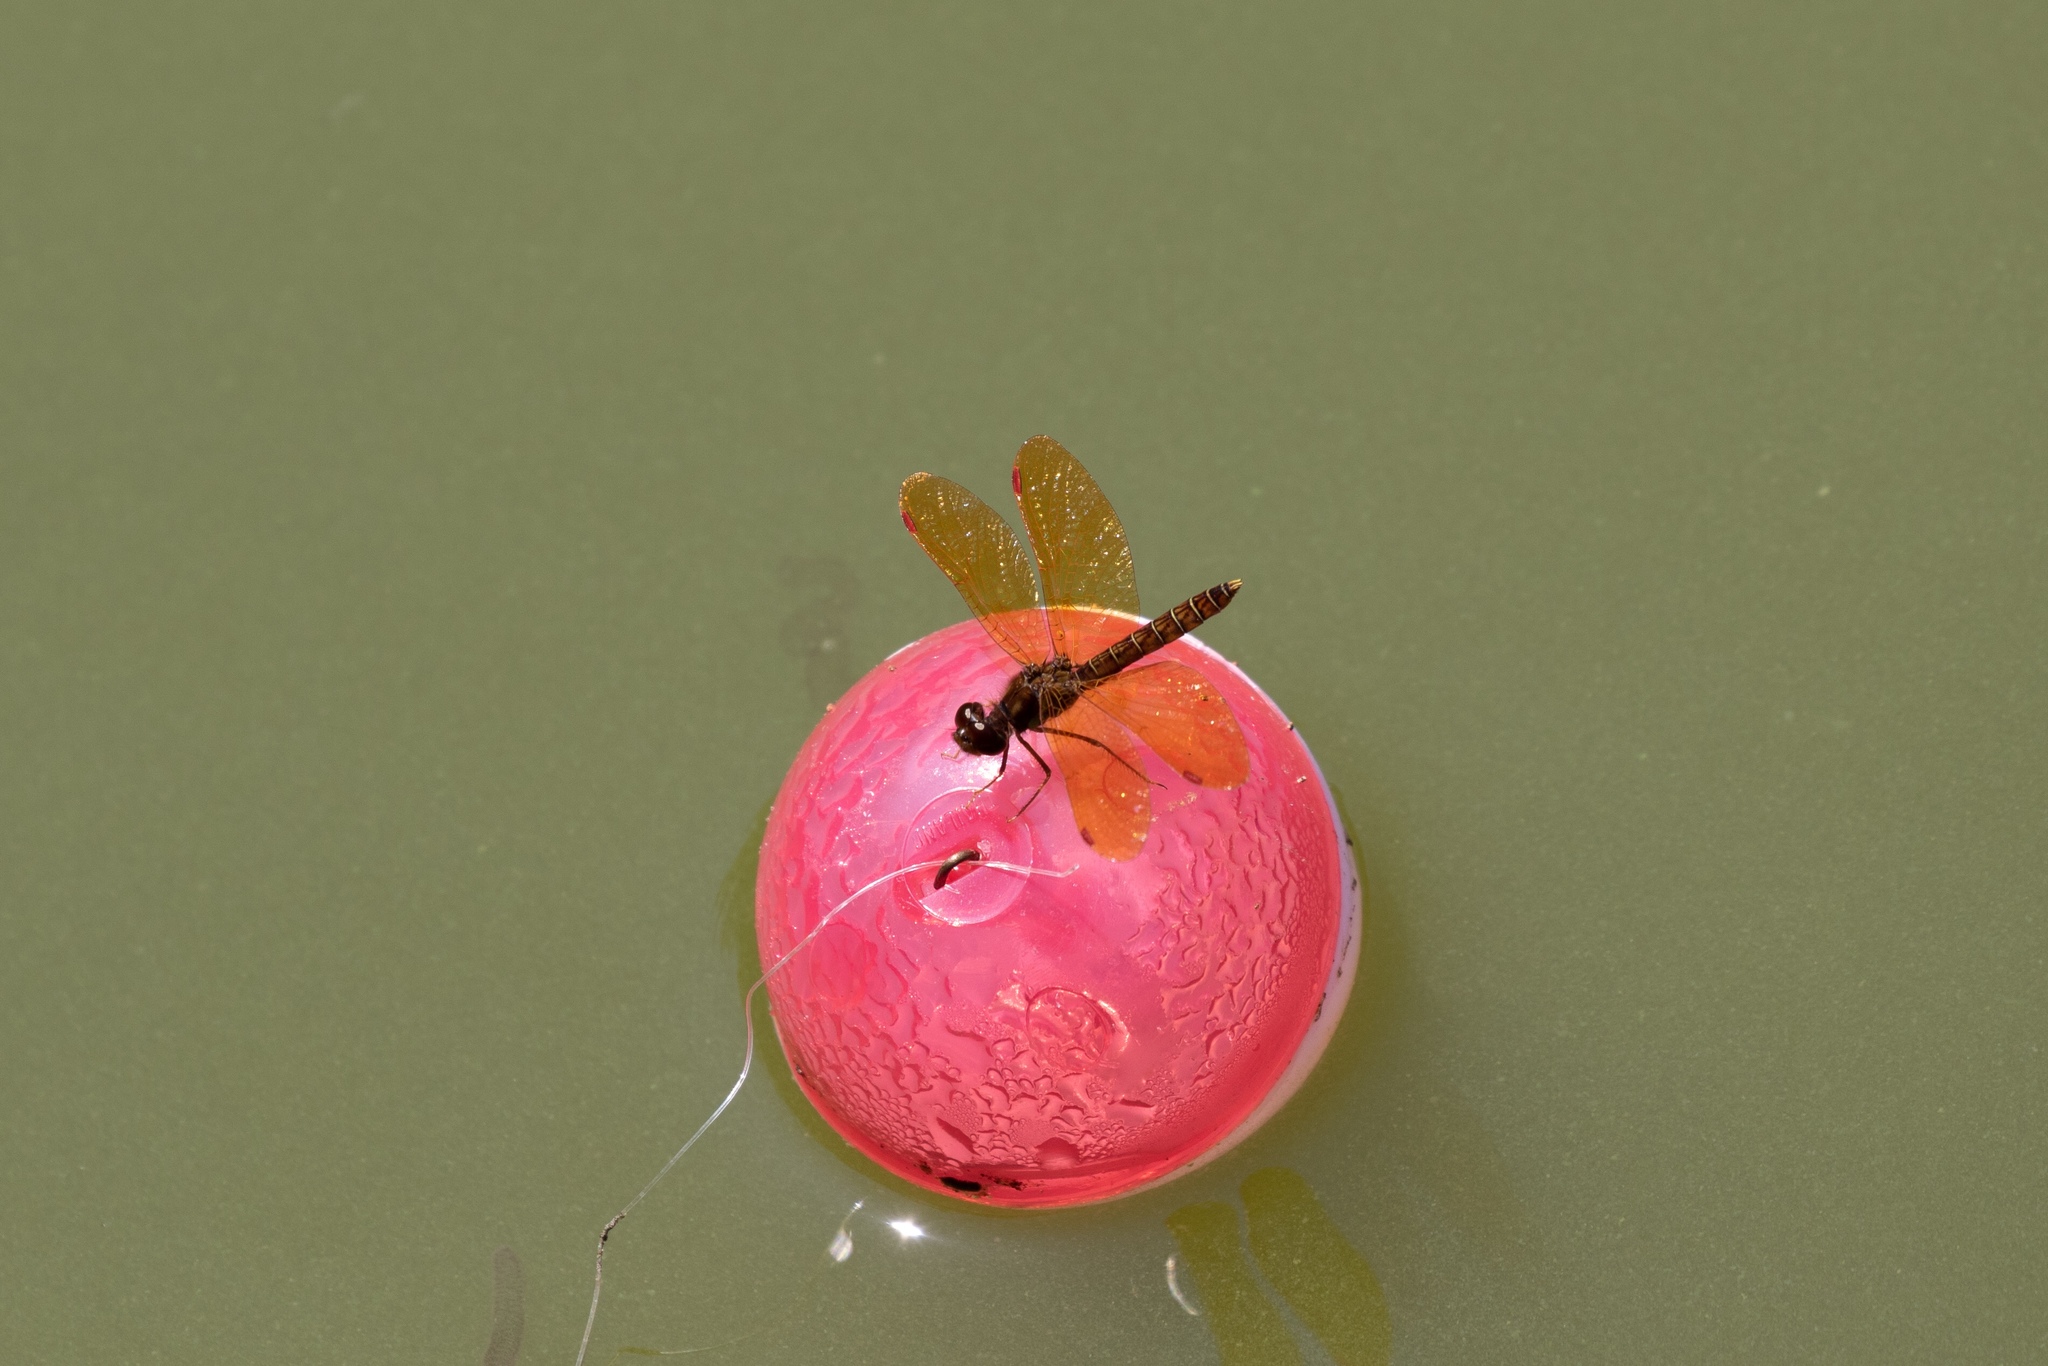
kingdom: Animalia
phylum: Arthropoda
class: Insecta
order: Odonata
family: Libellulidae
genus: Perithemis
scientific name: Perithemis tenera
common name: Eastern amberwing
